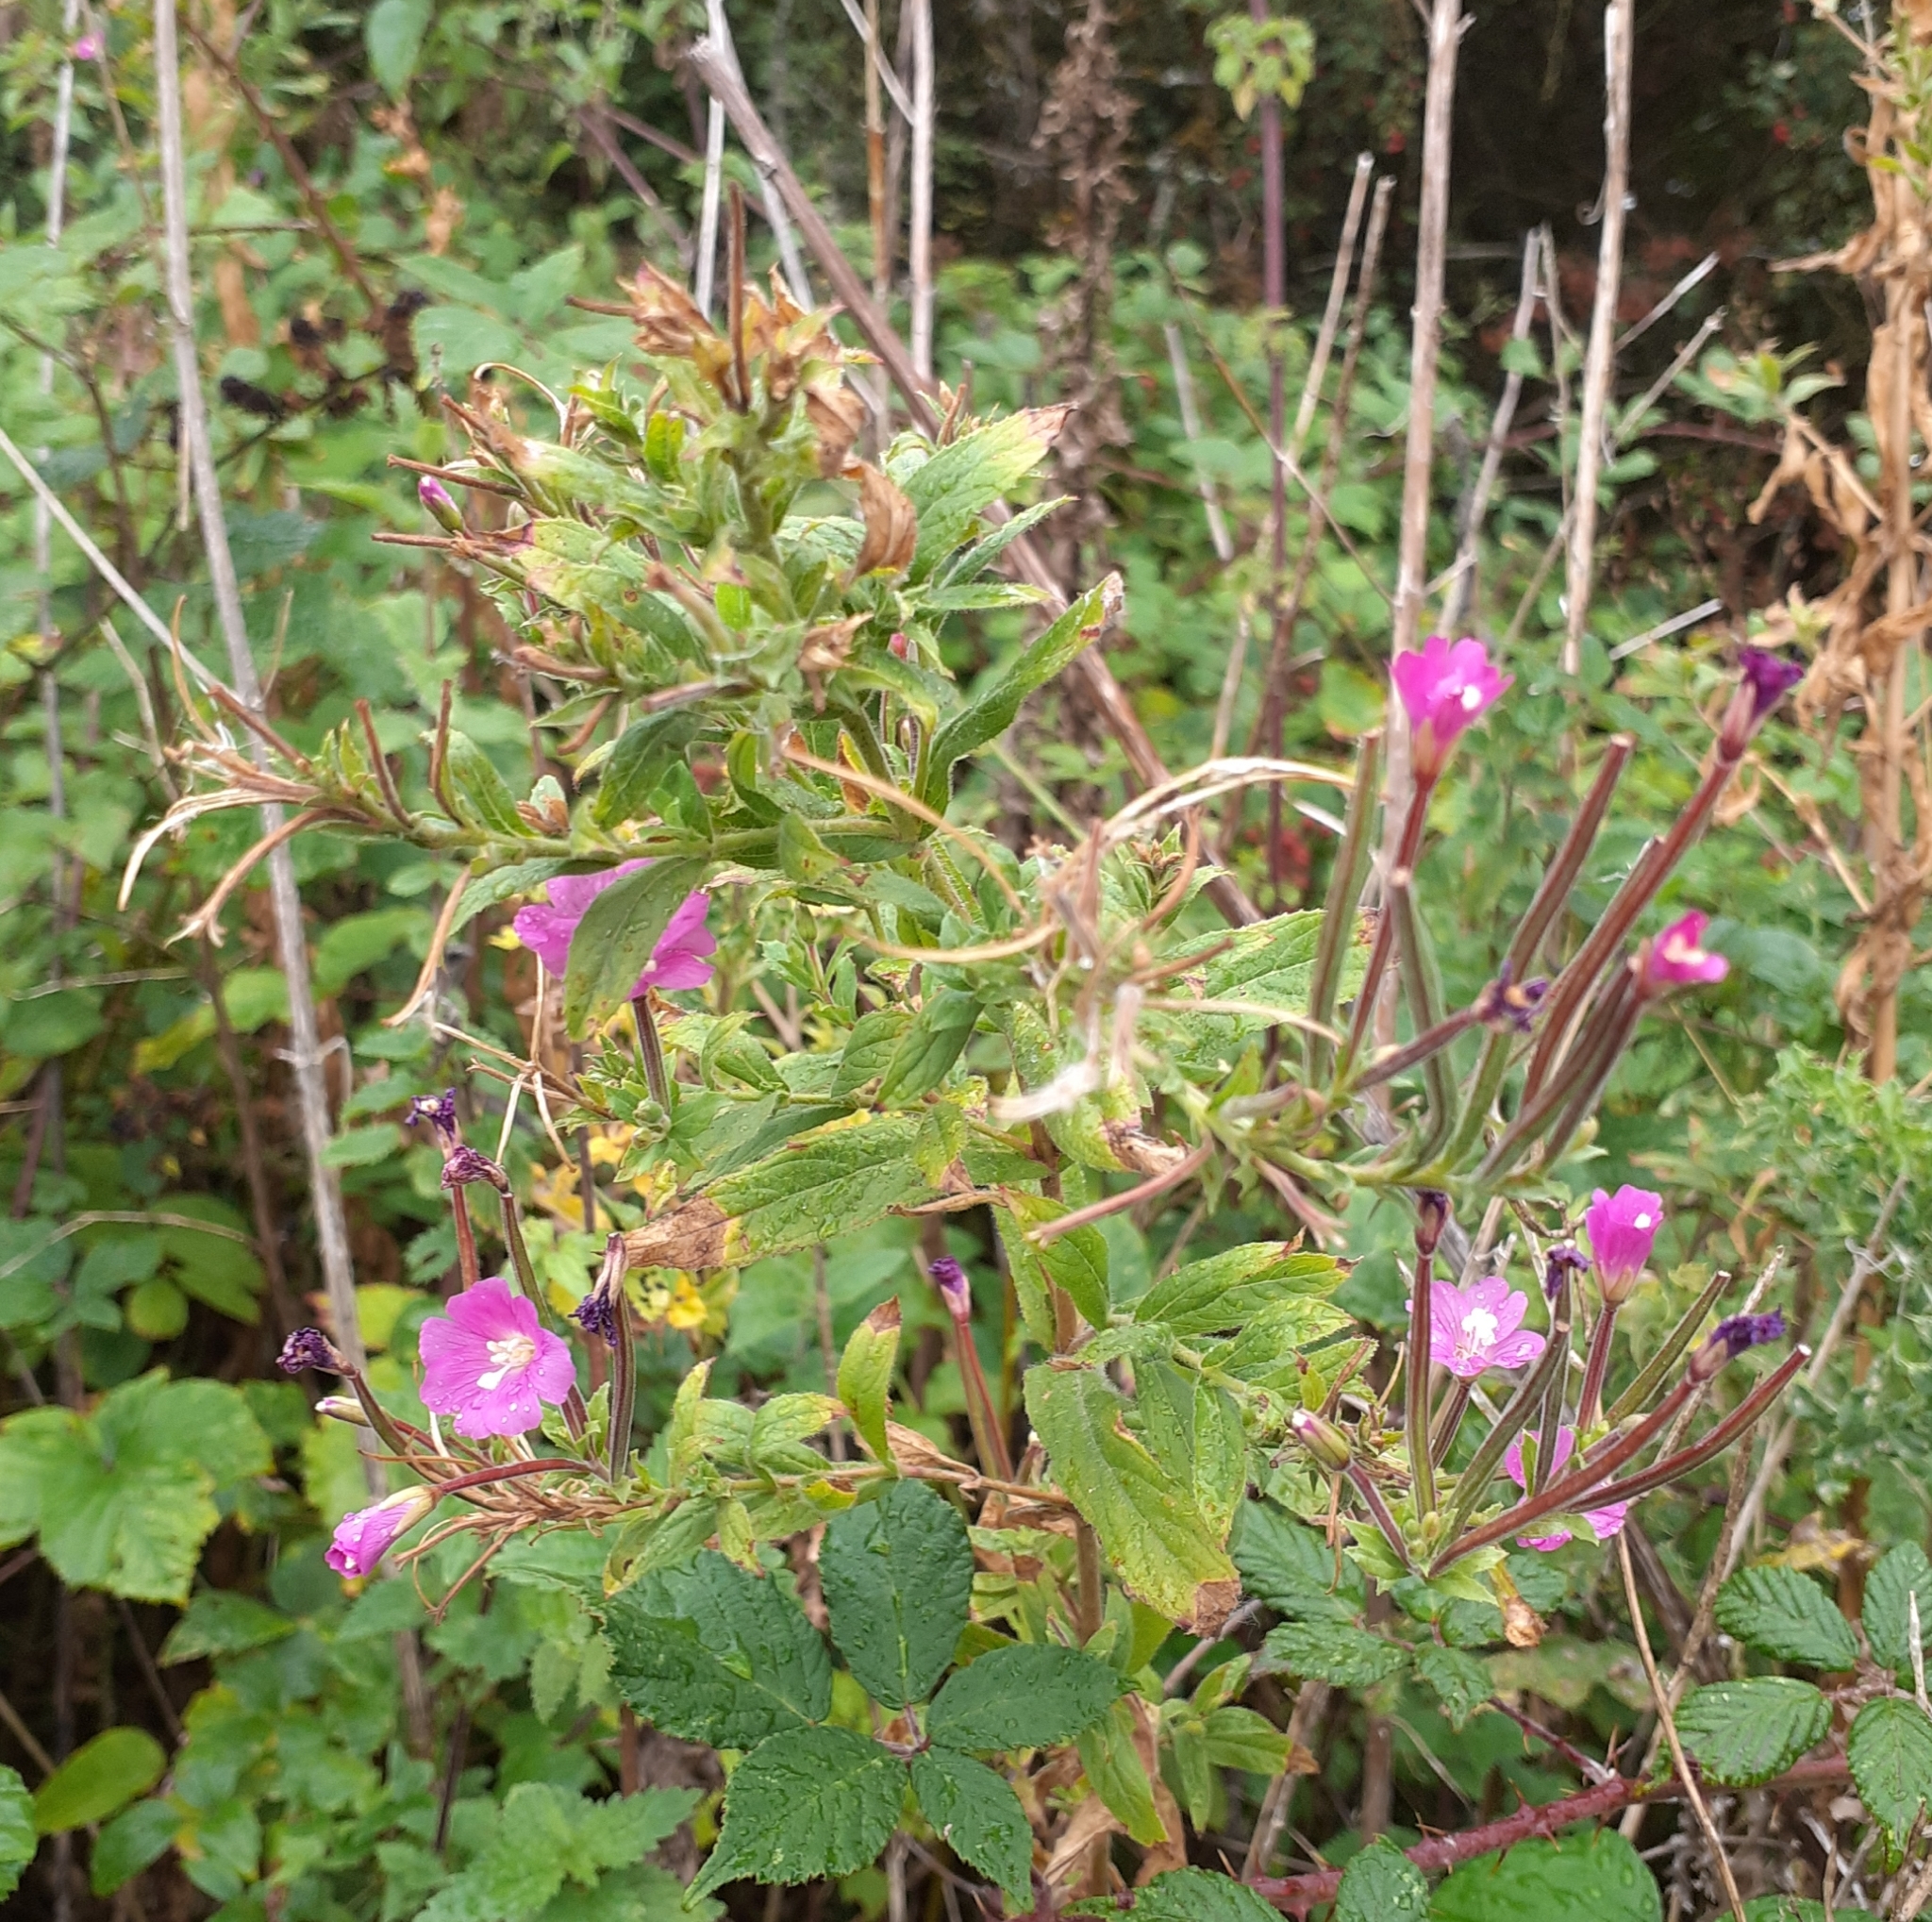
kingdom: Plantae
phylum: Tracheophyta
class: Magnoliopsida
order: Myrtales
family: Onagraceae
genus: Epilobium
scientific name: Epilobium hirsutum
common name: Great willowherb
